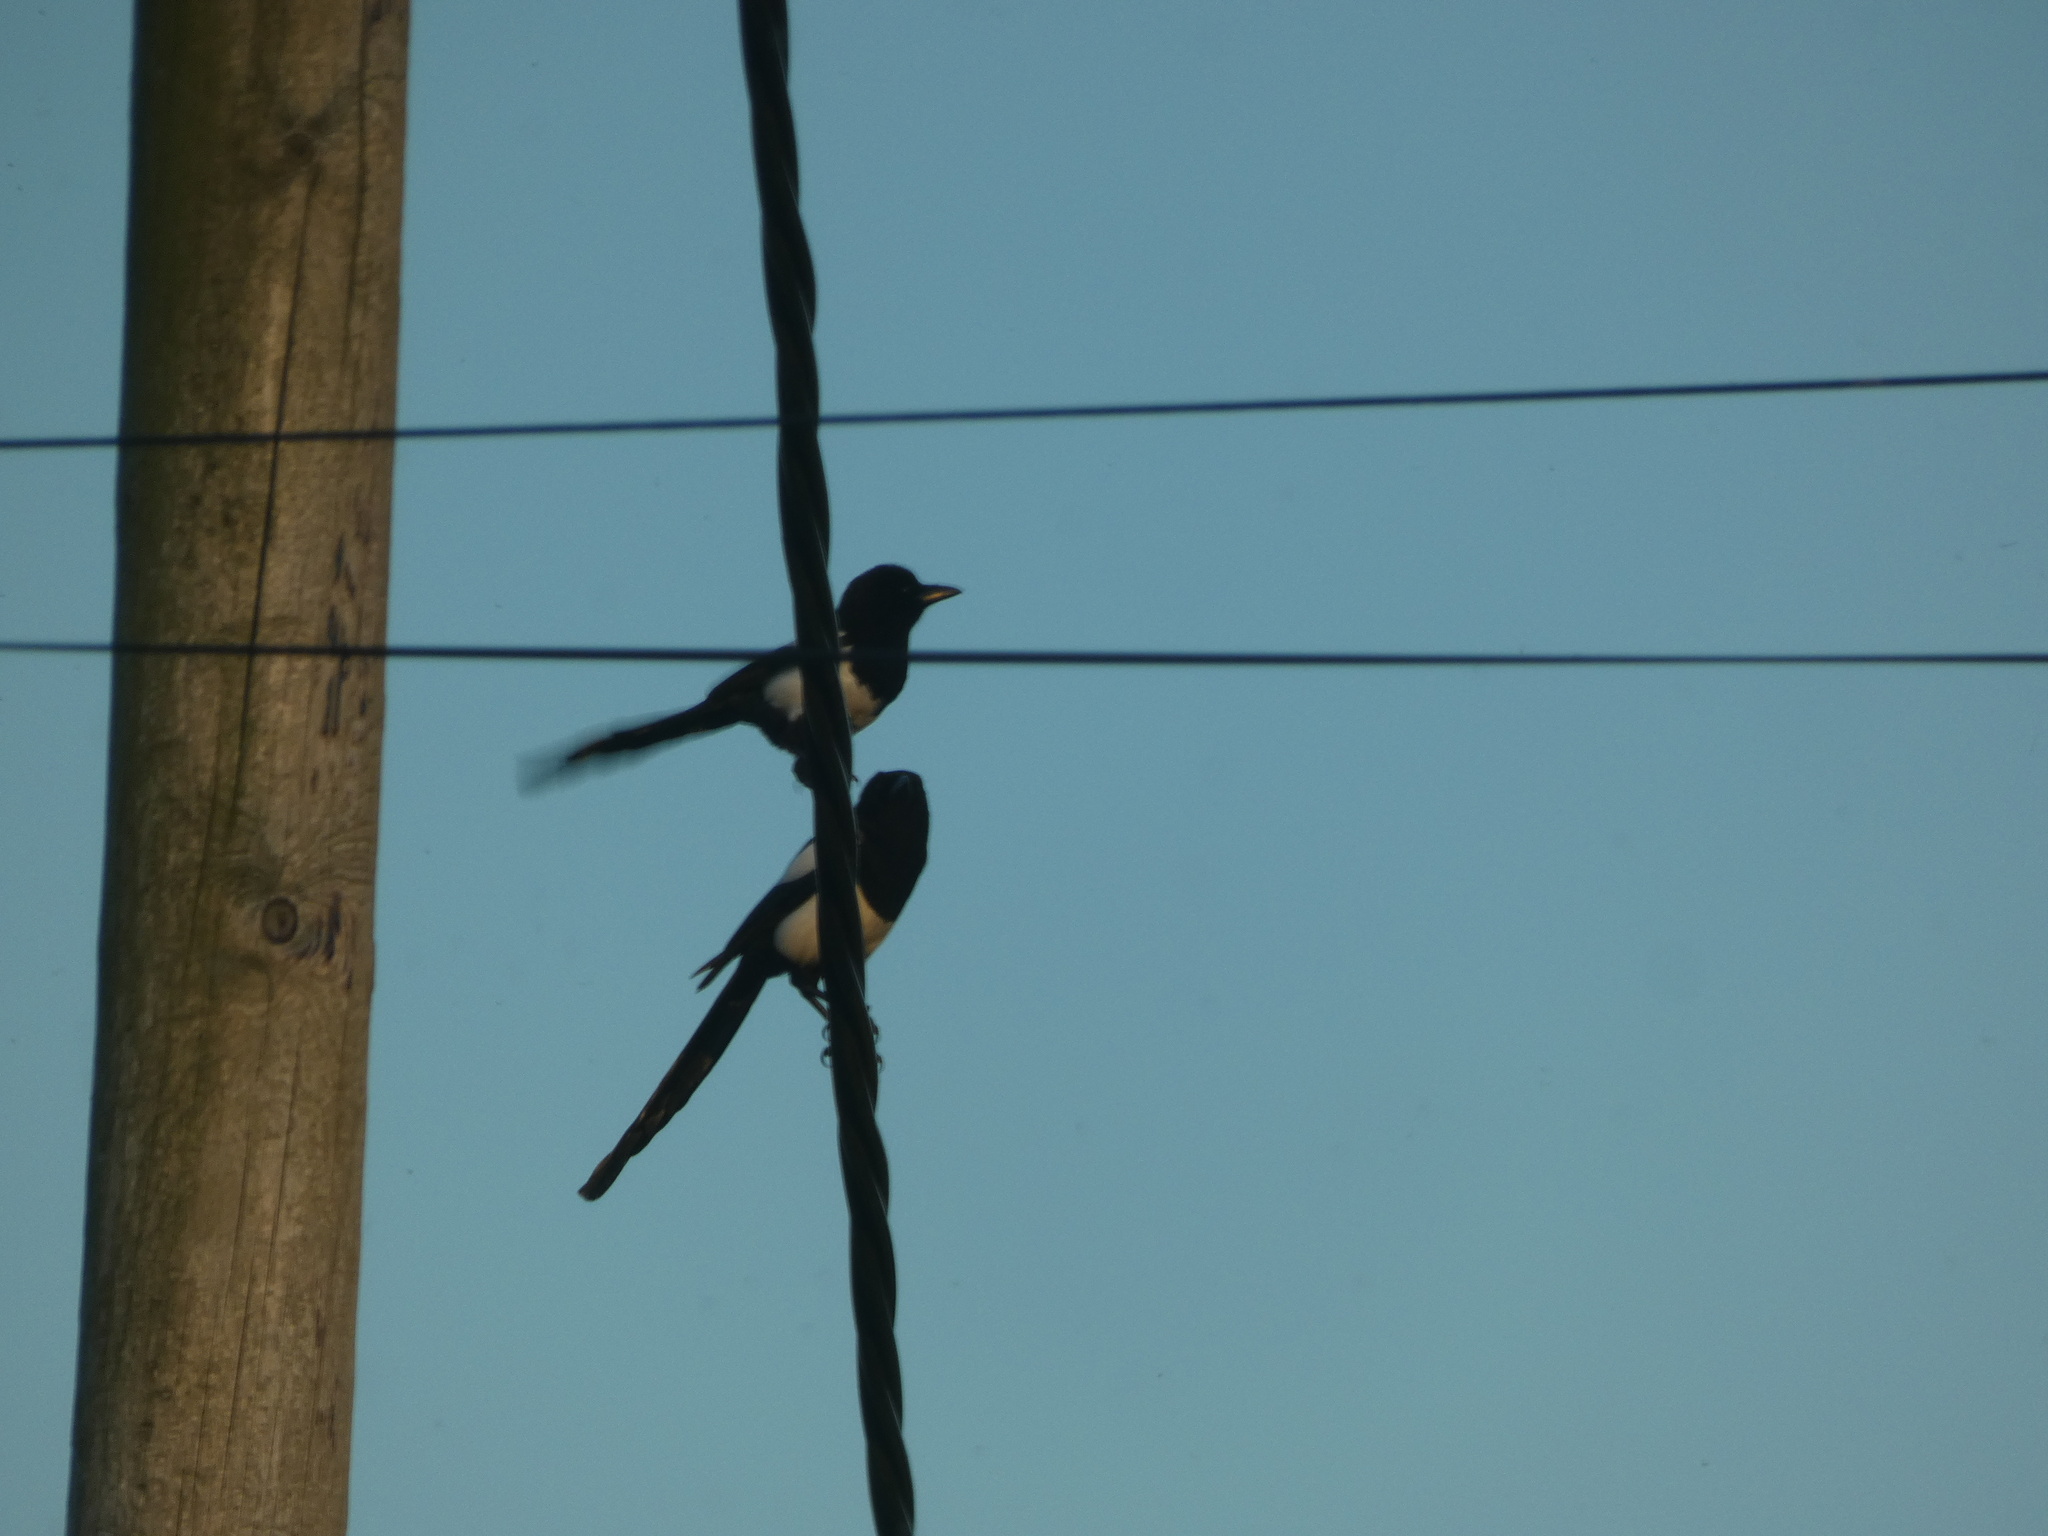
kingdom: Animalia
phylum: Chordata
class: Aves
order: Passeriformes
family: Corvidae
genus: Pica
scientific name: Pica pica
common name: Eurasian magpie
